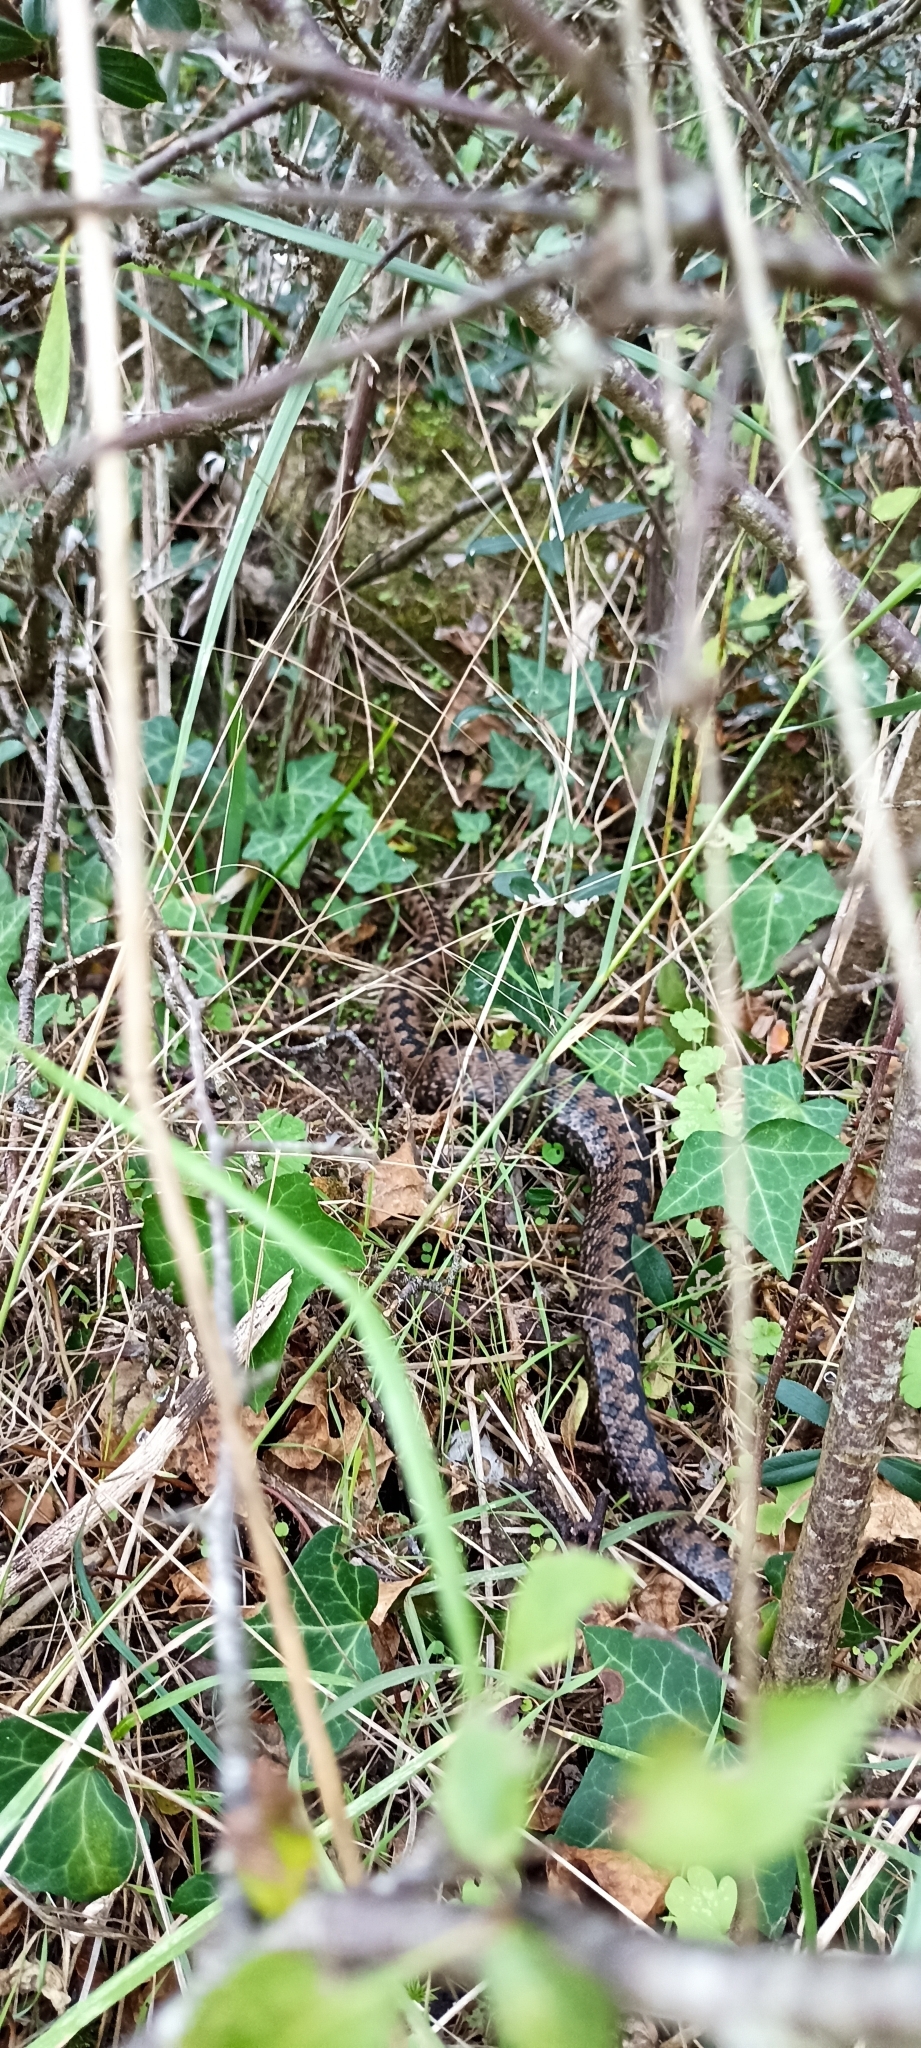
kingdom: Animalia
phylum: Chordata
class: Squamata
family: Viperidae
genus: Vipera
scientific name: Vipera aspis
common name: Asp viper
